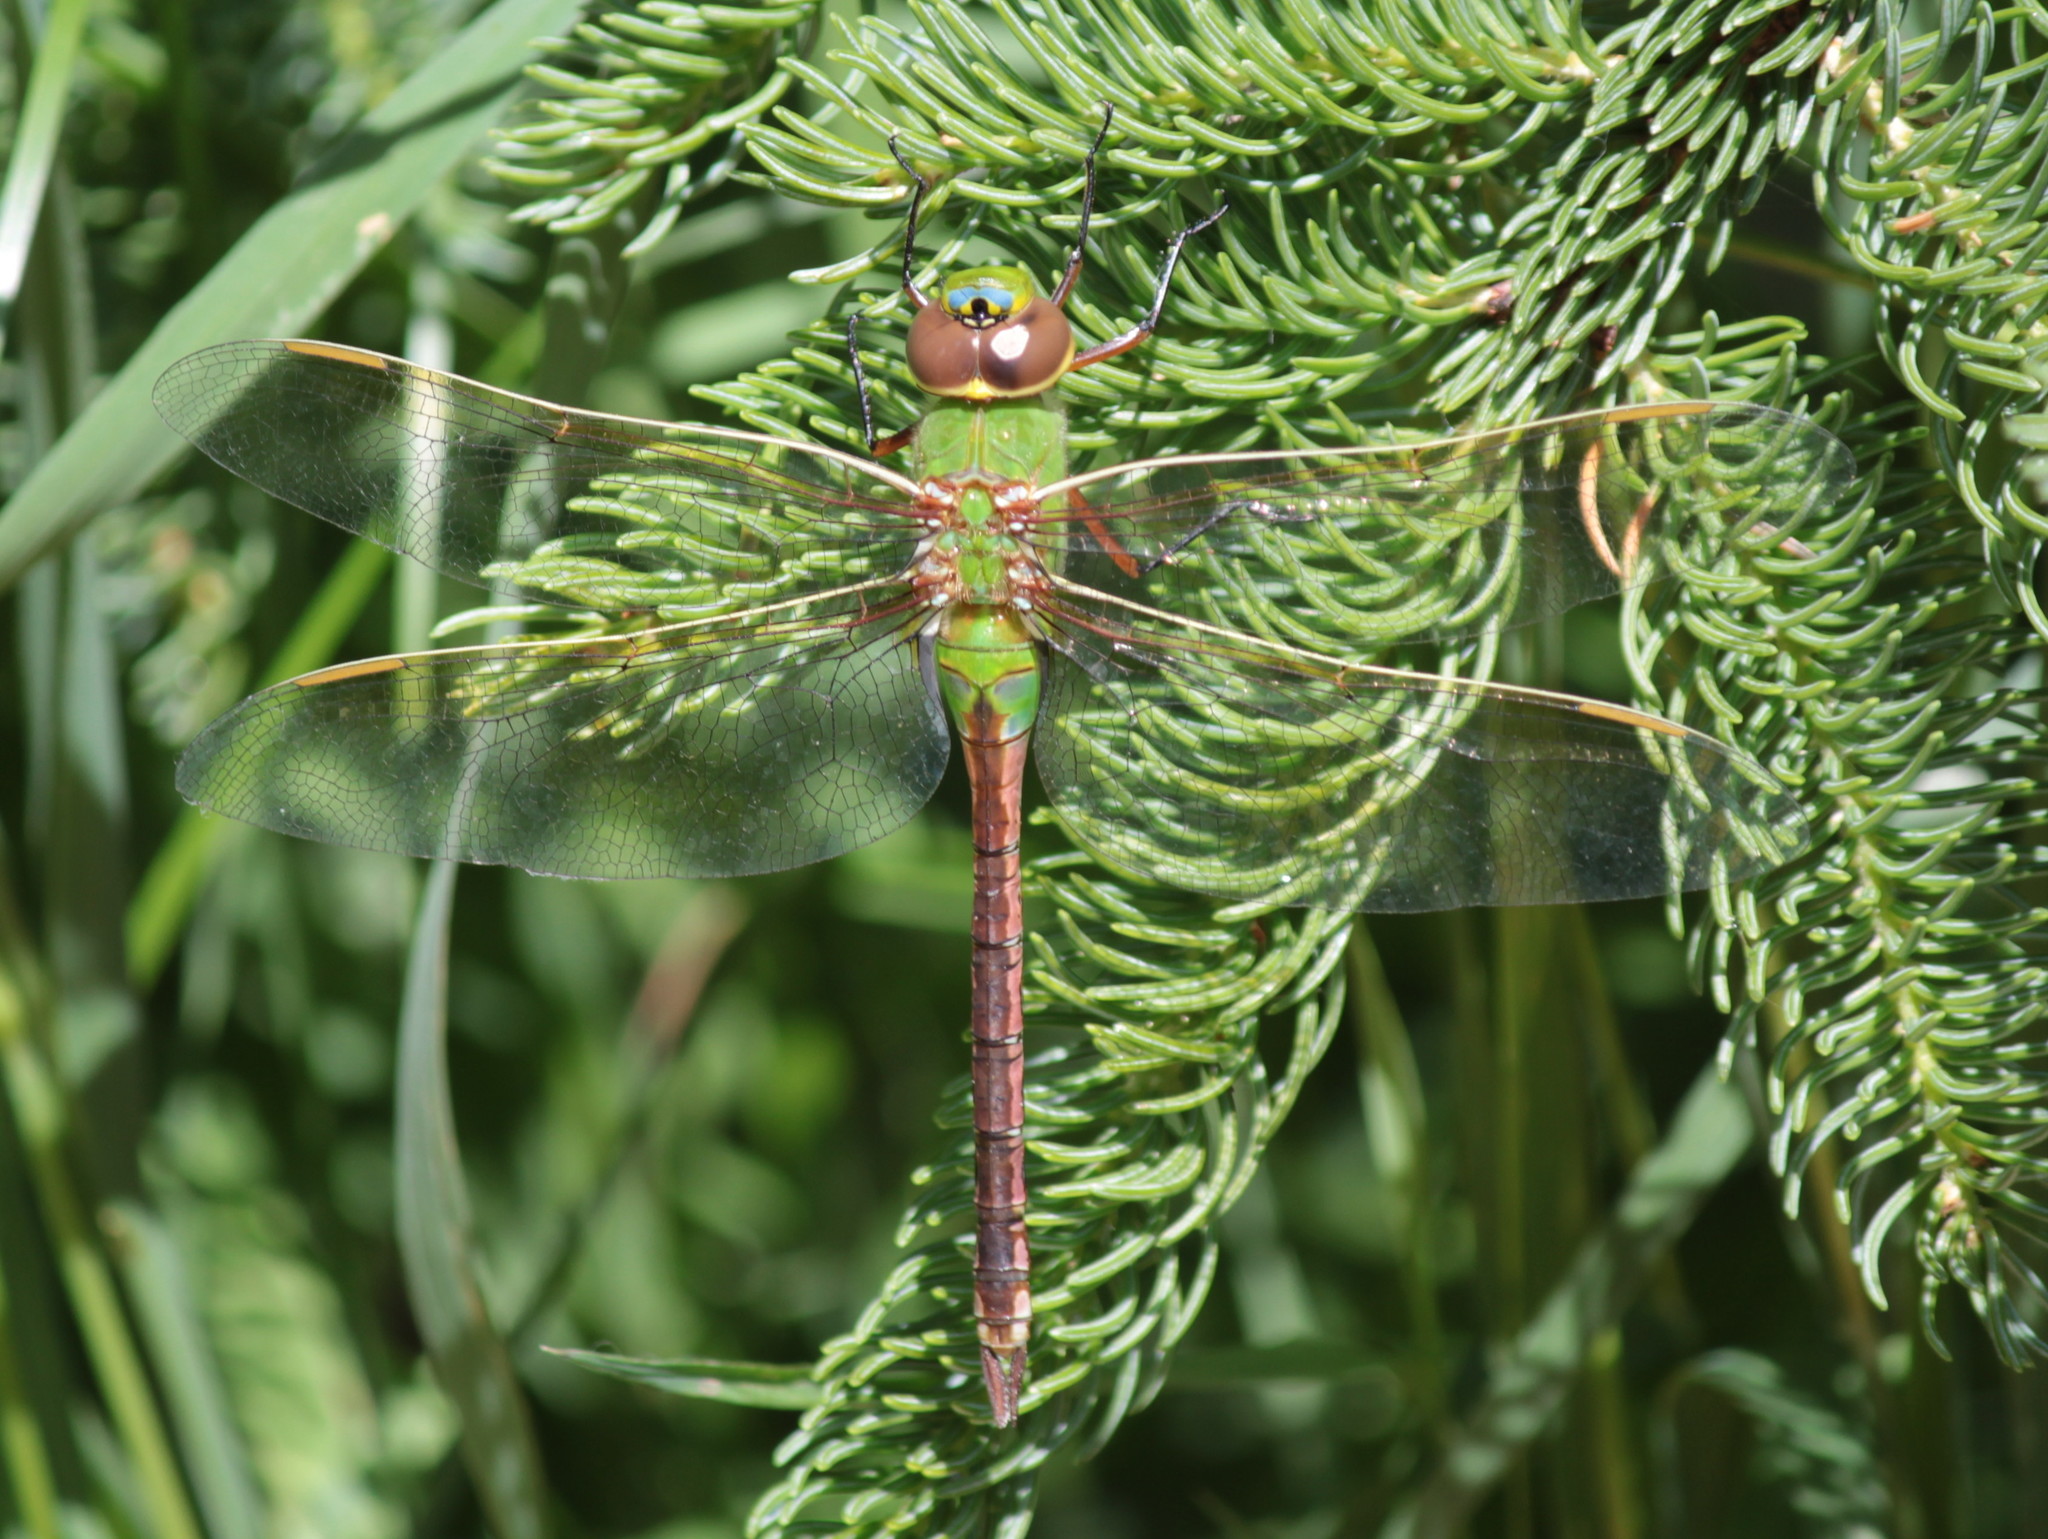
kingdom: Animalia
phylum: Arthropoda
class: Insecta
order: Odonata
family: Aeshnidae
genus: Anax
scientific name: Anax junius
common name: Common green darner
